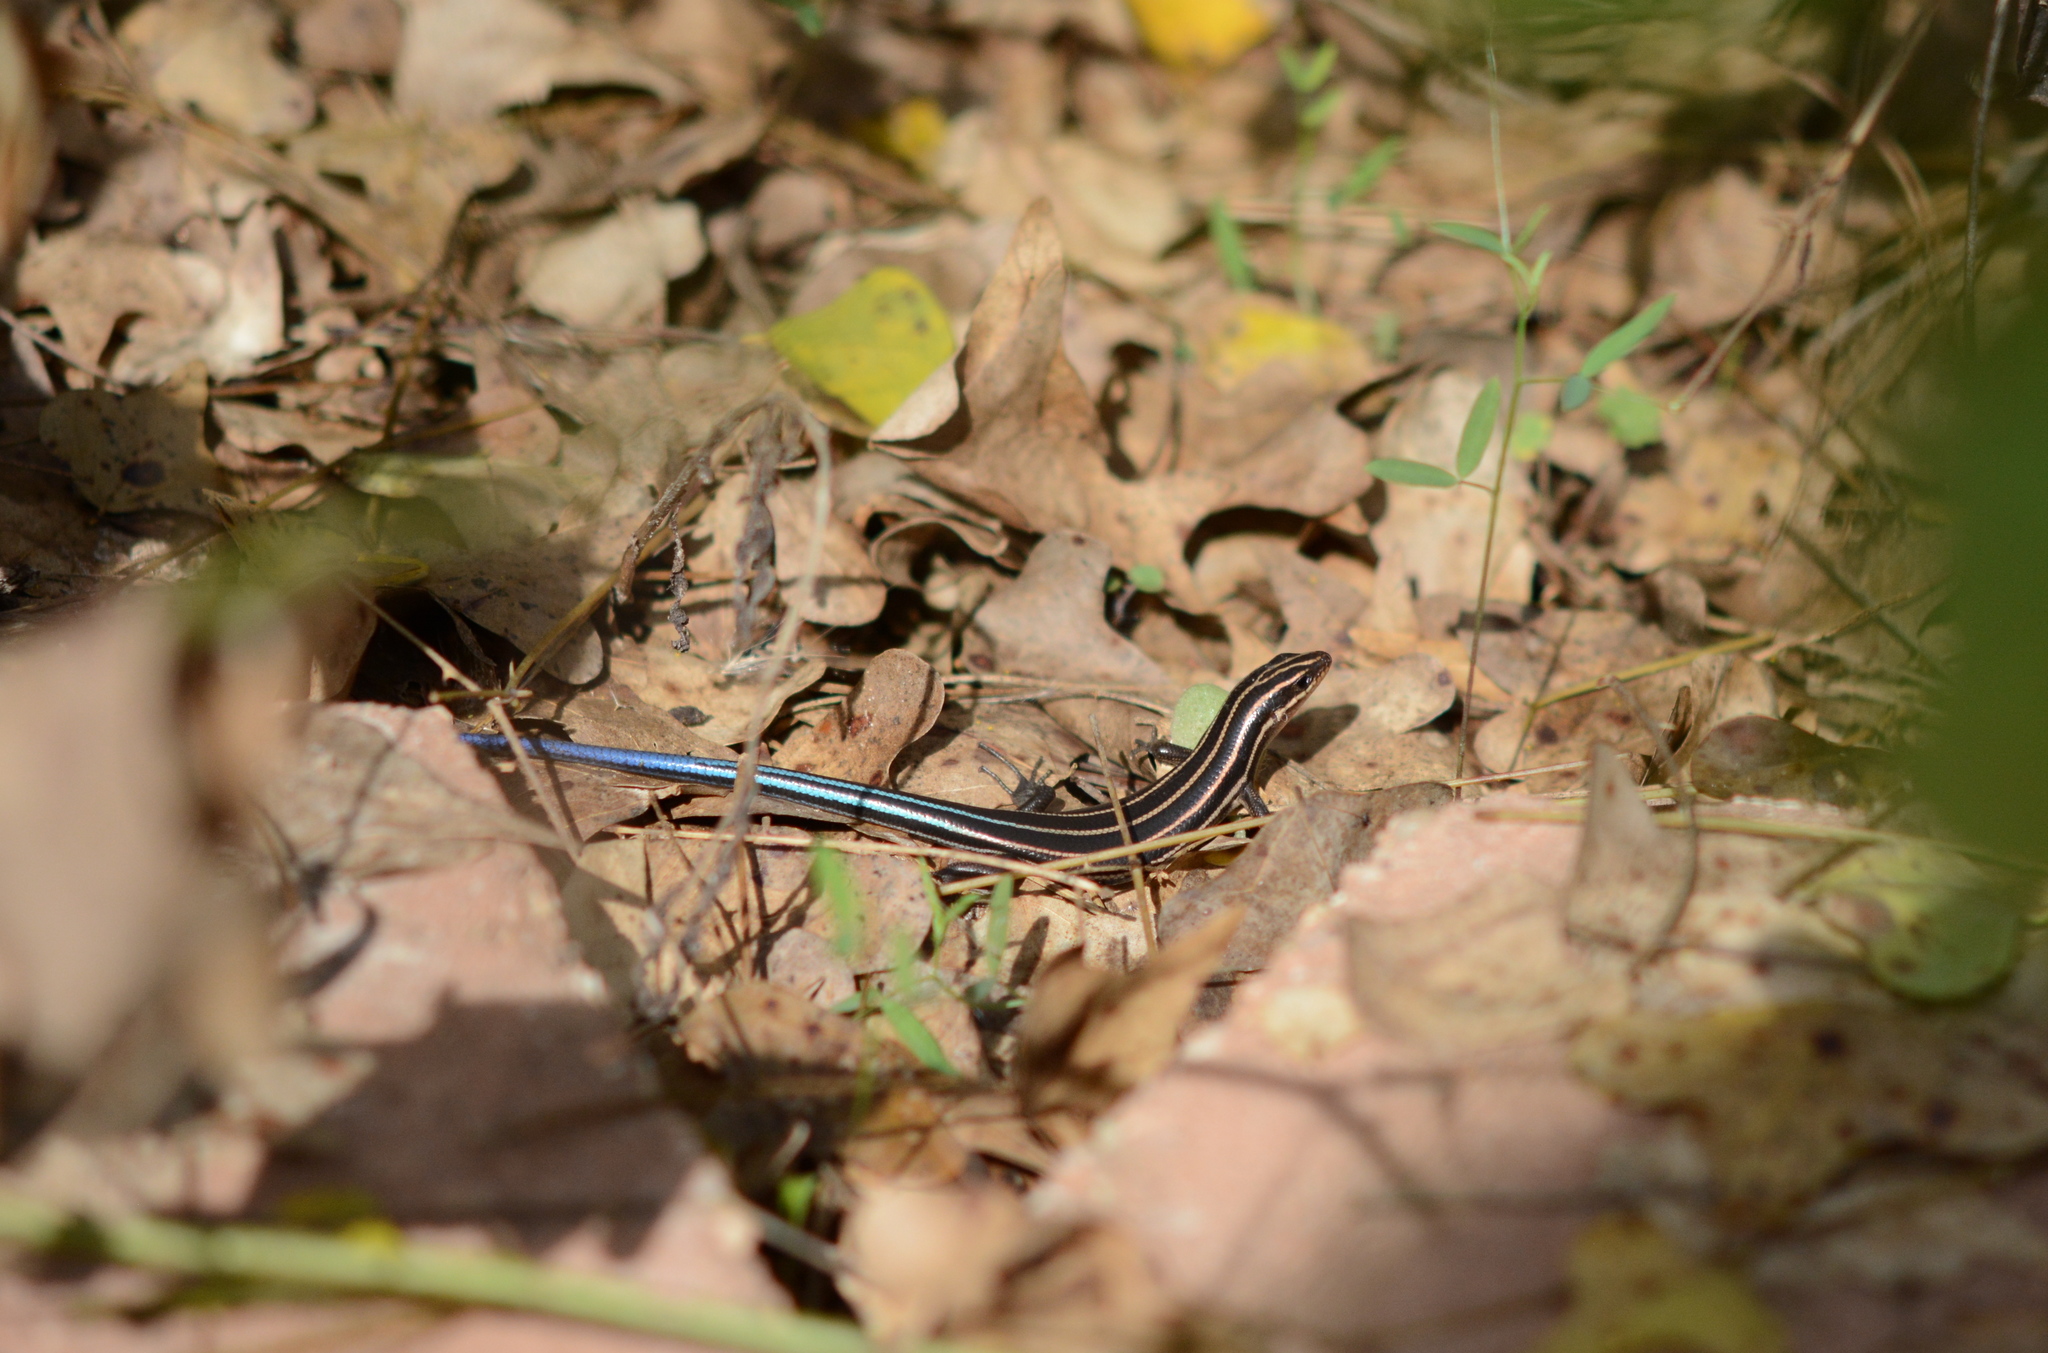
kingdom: Animalia
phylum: Chordata
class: Squamata
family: Scincidae
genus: Plestiodon
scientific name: Plestiodon fasciatus
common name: Five-lined skink
